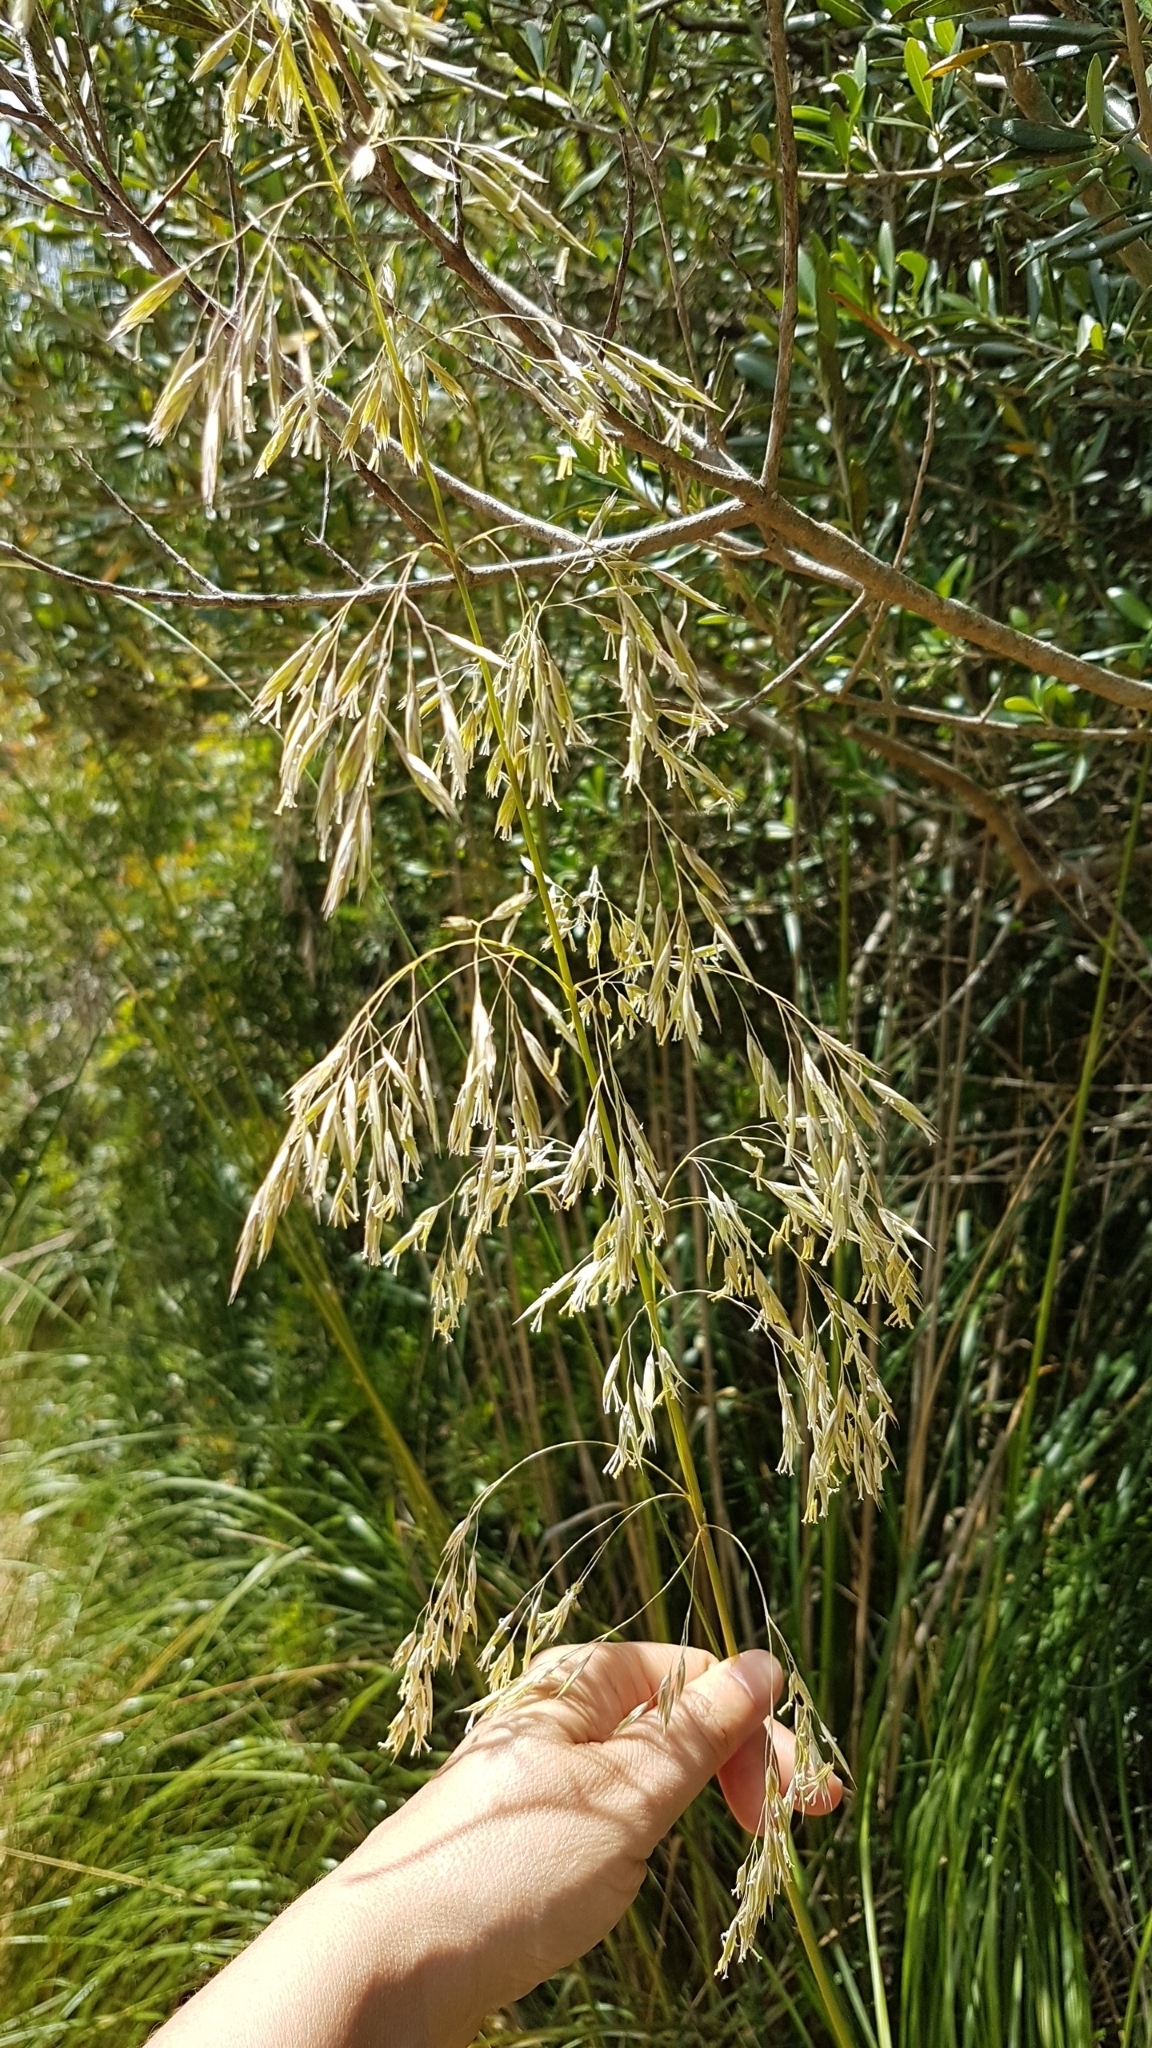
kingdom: Plantae
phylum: Tracheophyta
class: Liliopsida
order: Poales
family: Poaceae
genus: Ampelodesmos
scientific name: Ampelodesmos mauritanicus
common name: Mauritanian grass
